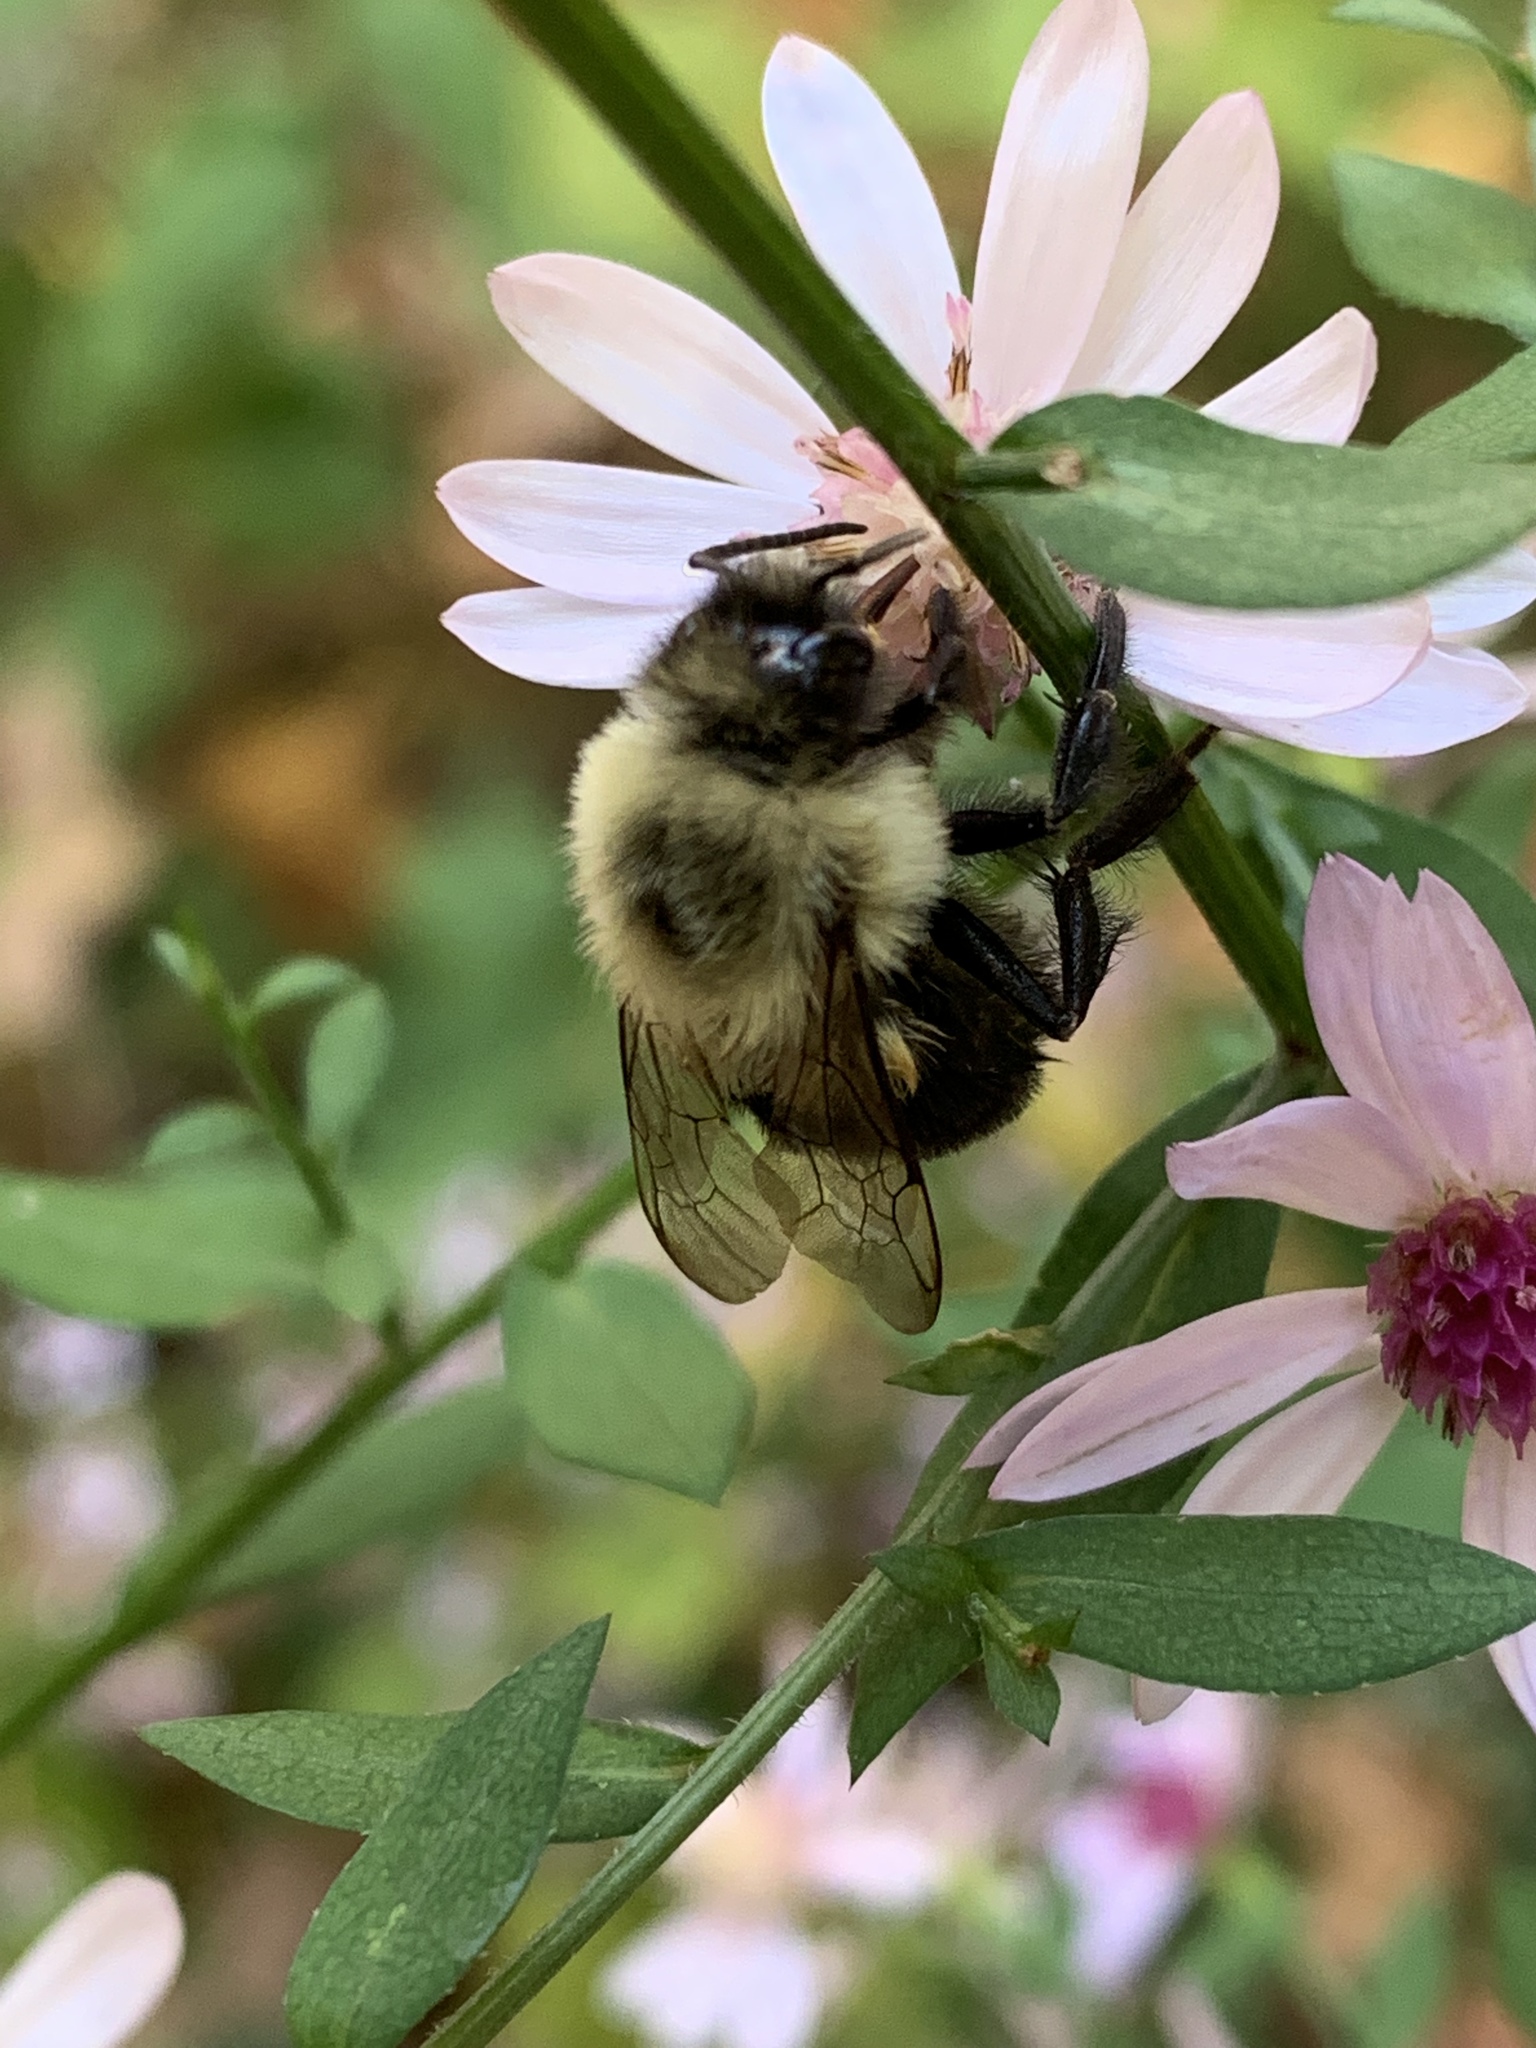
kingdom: Animalia
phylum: Arthropoda
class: Insecta
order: Hymenoptera
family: Apidae
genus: Bombus
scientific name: Bombus impatiens
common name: Common eastern bumble bee
